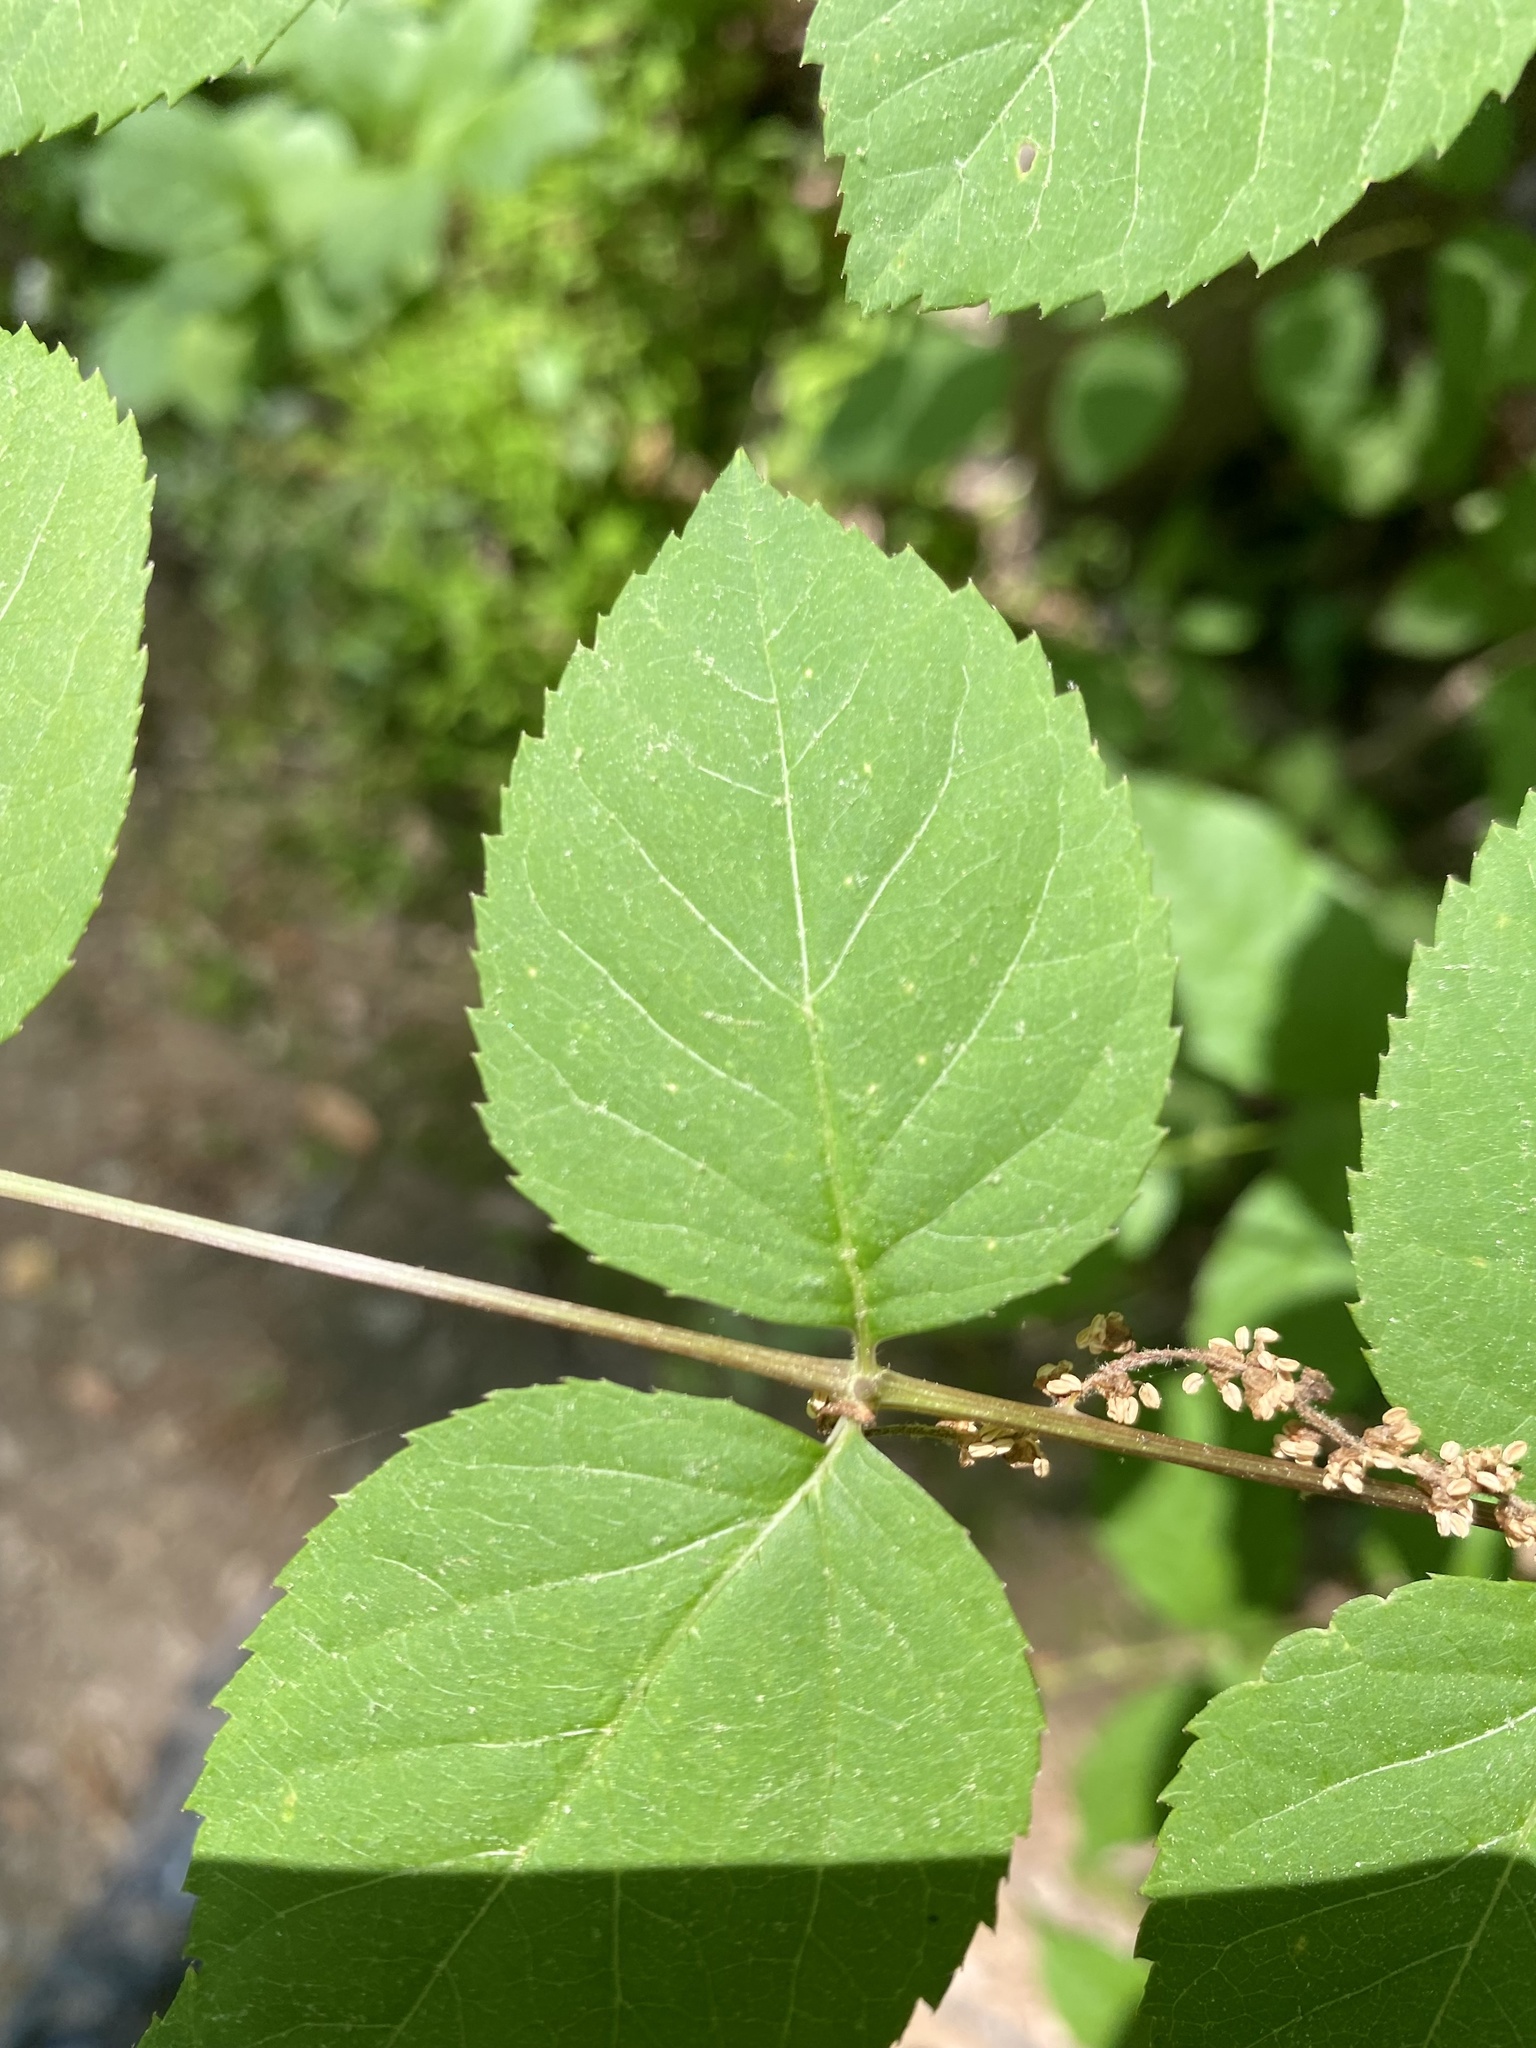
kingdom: Plantae
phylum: Tracheophyta
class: Magnoliopsida
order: Apiales
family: Araliaceae
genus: Aralia
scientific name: Aralia spinosa
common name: Hercules'-club
